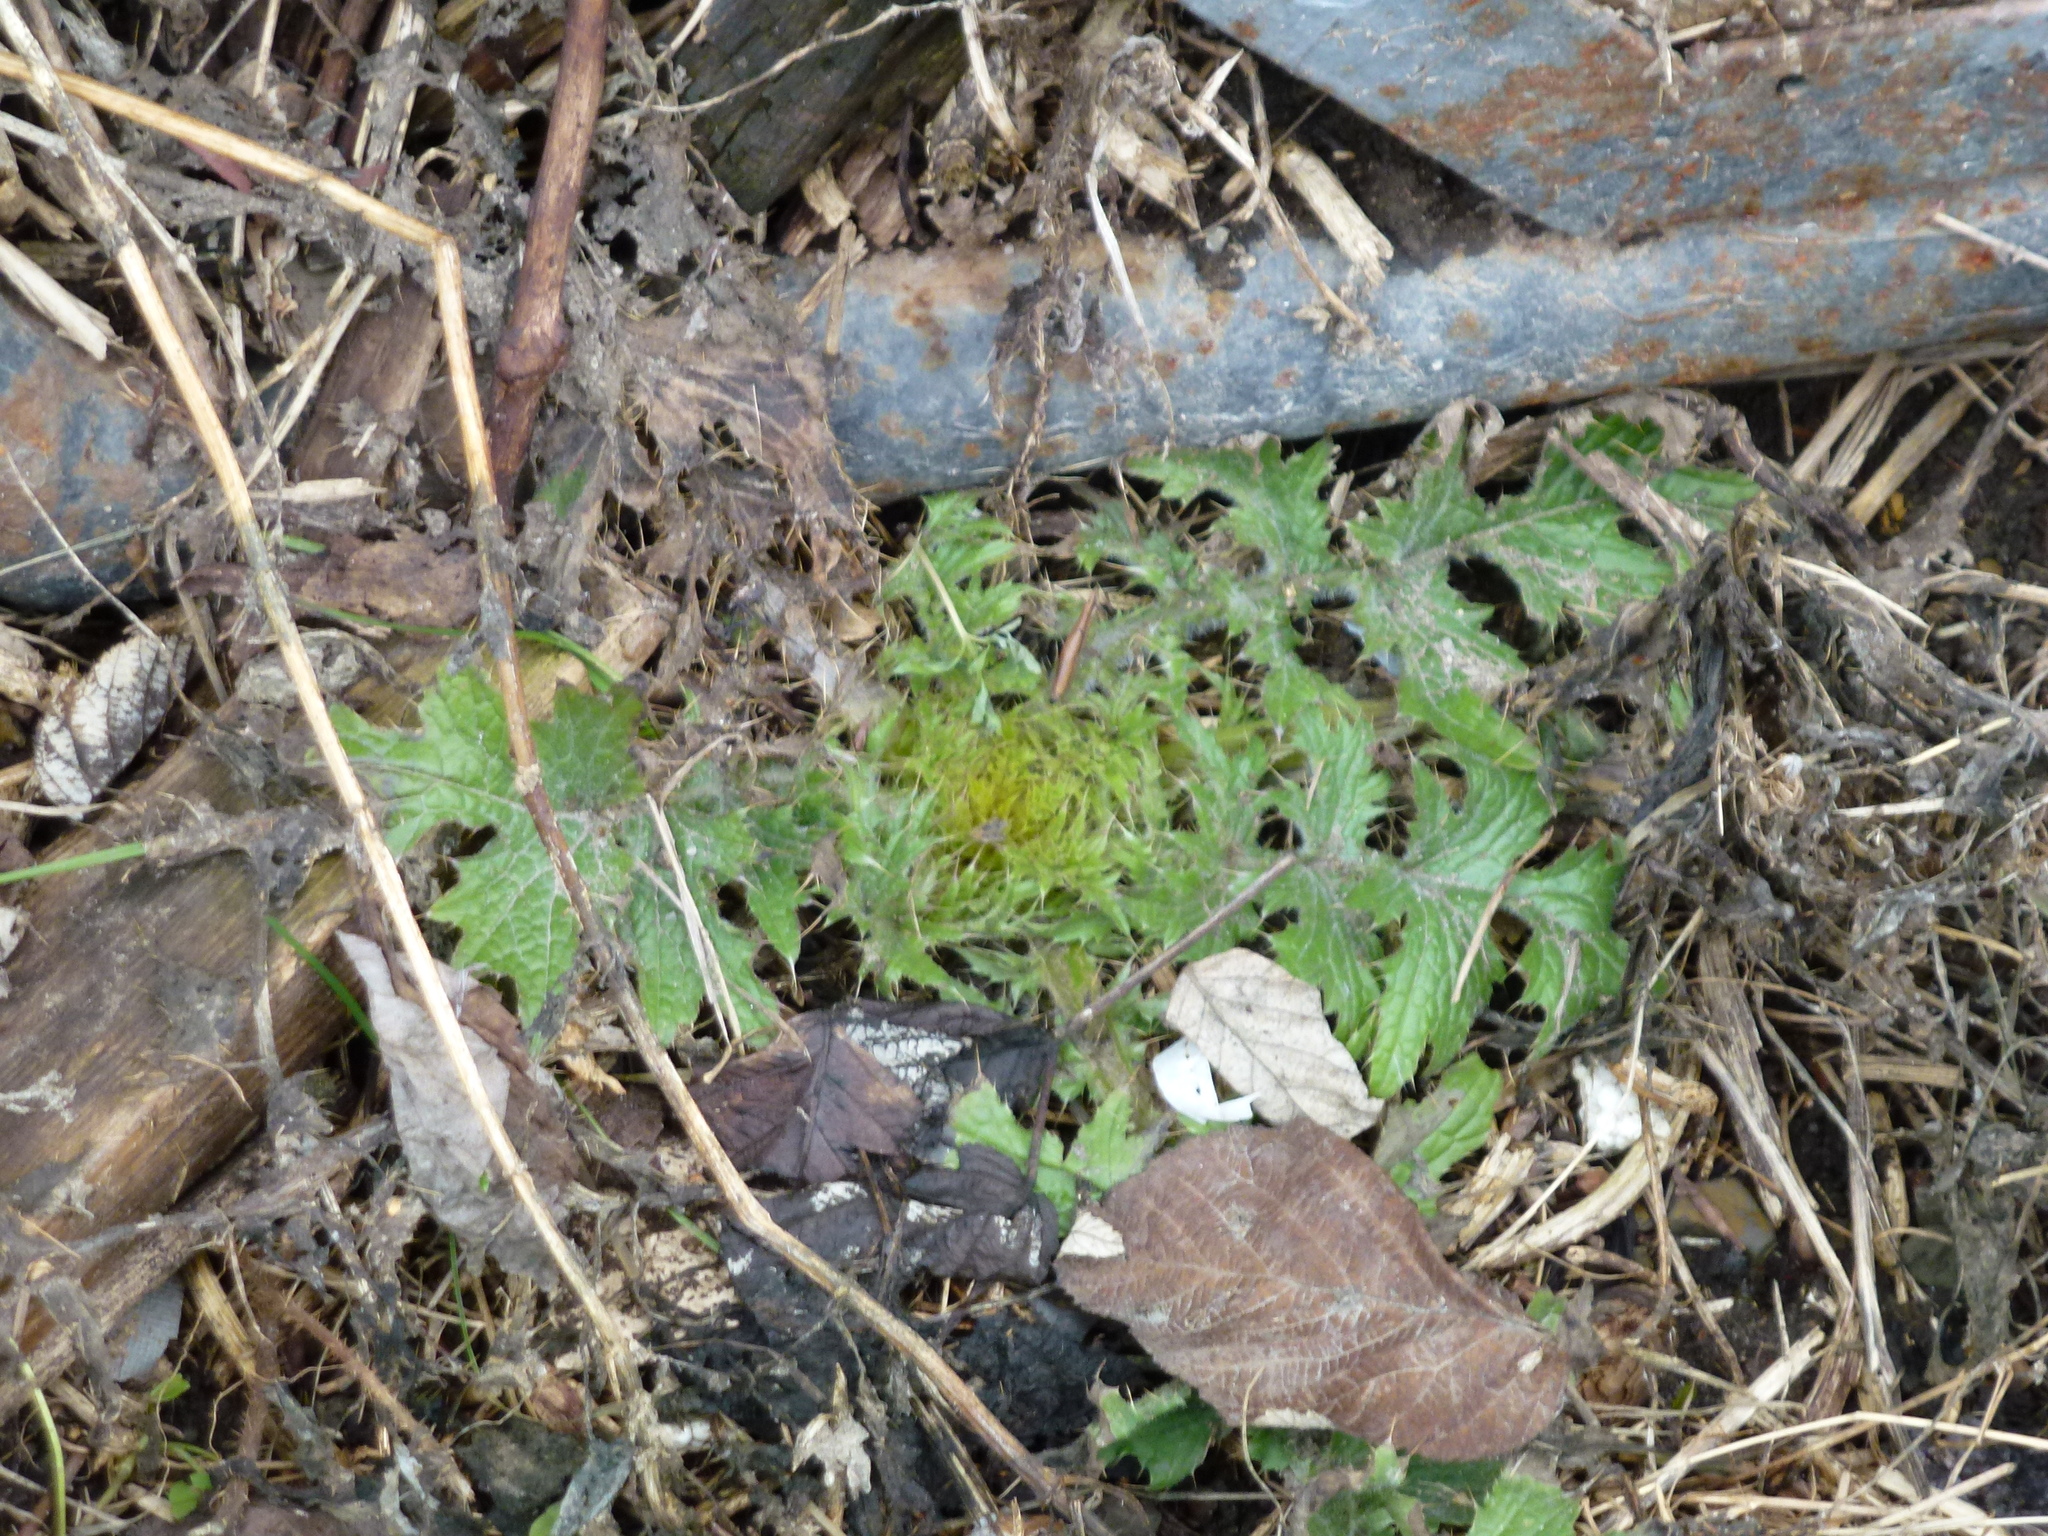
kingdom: Plantae
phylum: Tracheophyta
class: Magnoliopsida
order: Asterales
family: Asteraceae
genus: Cirsium
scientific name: Cirsium vulgare
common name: Bull thistle
